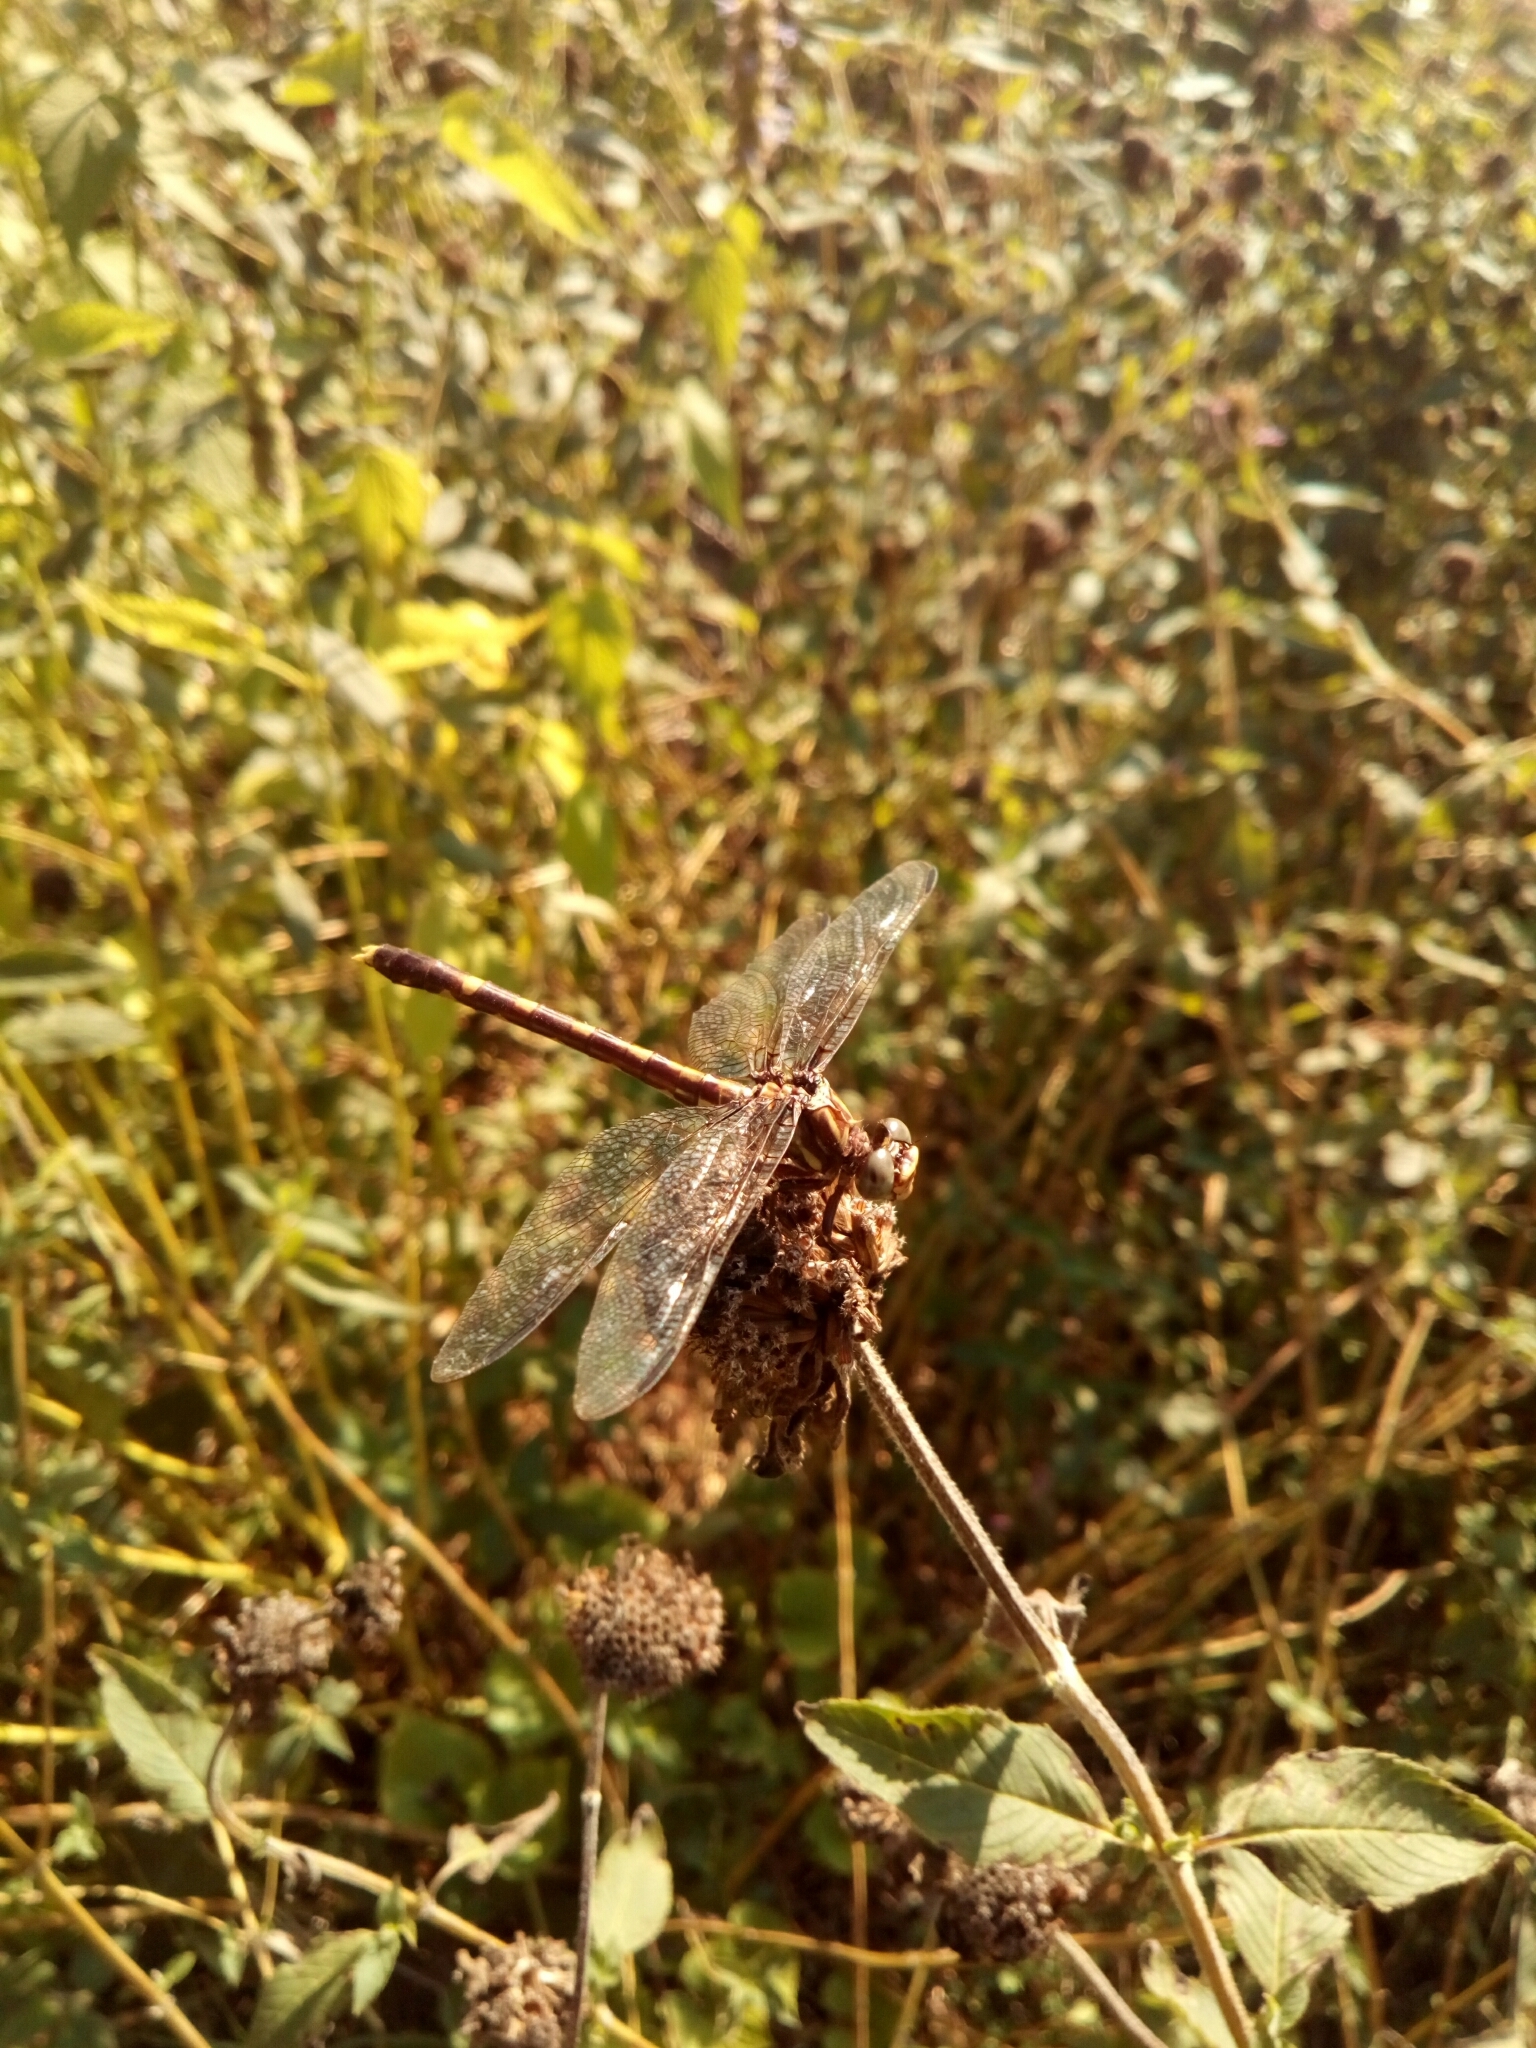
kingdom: Animalia
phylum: Arthropoda
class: Insecta
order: Odonata
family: Gomphidae
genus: Progomphus
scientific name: Progomphus obscurus
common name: Common sanddragon
